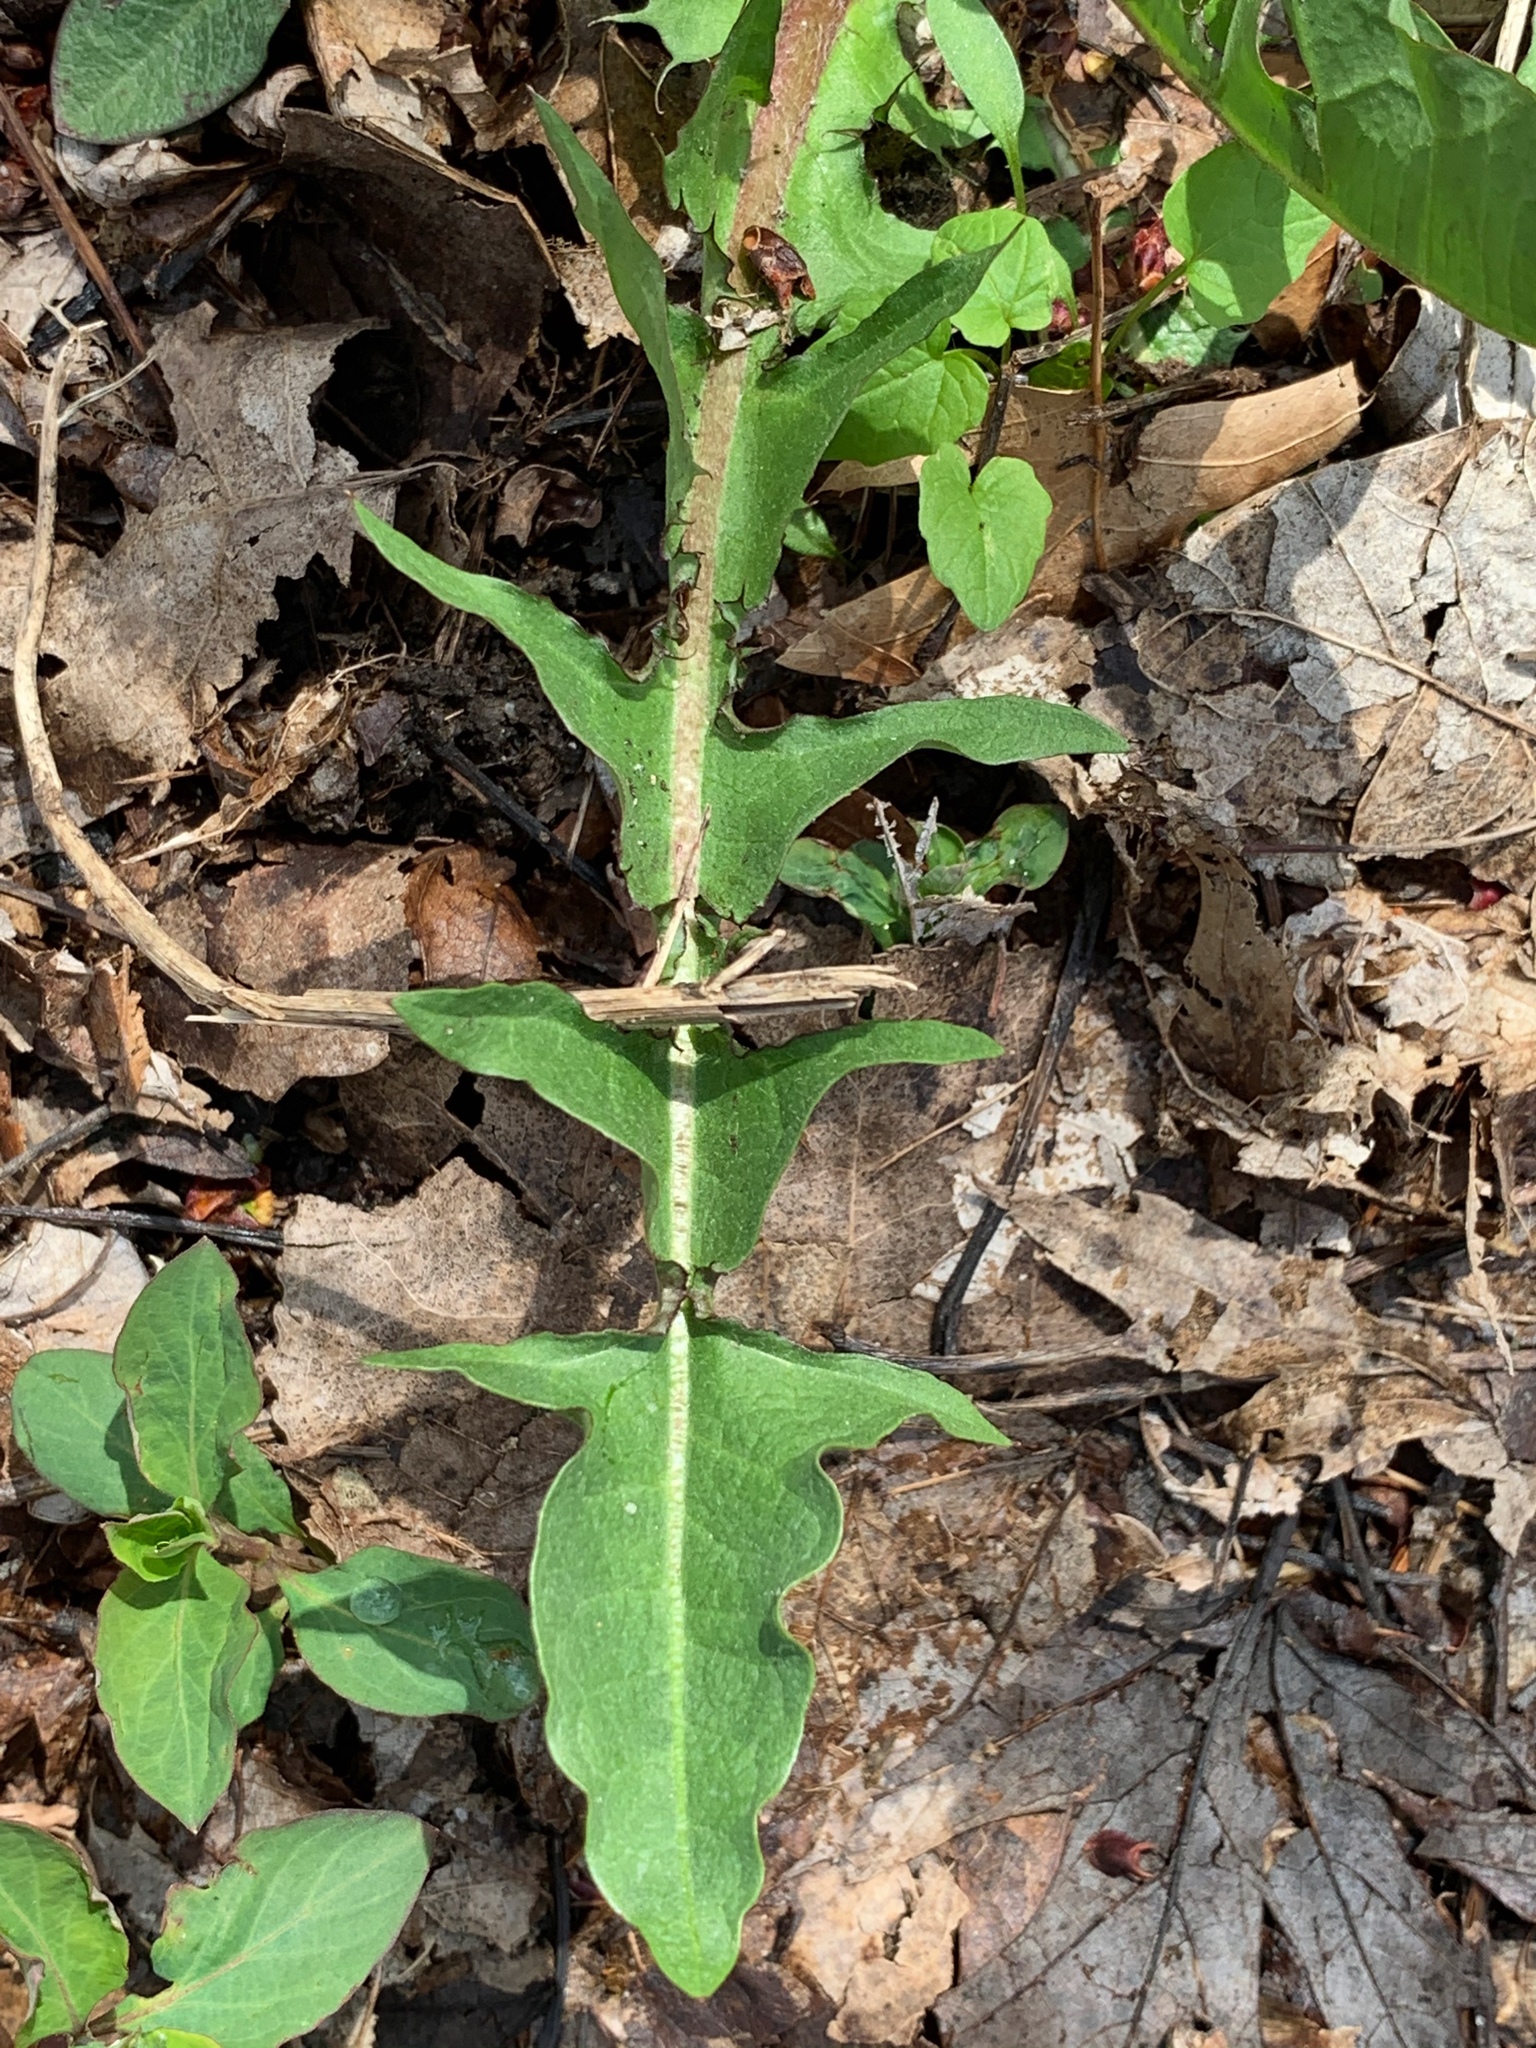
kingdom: Plantae
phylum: Tracheophyta
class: Magnoliopsida
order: Asterales
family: Asteraceae
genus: Taraxacum
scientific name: Taraxacum officinale
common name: Common dandelion
